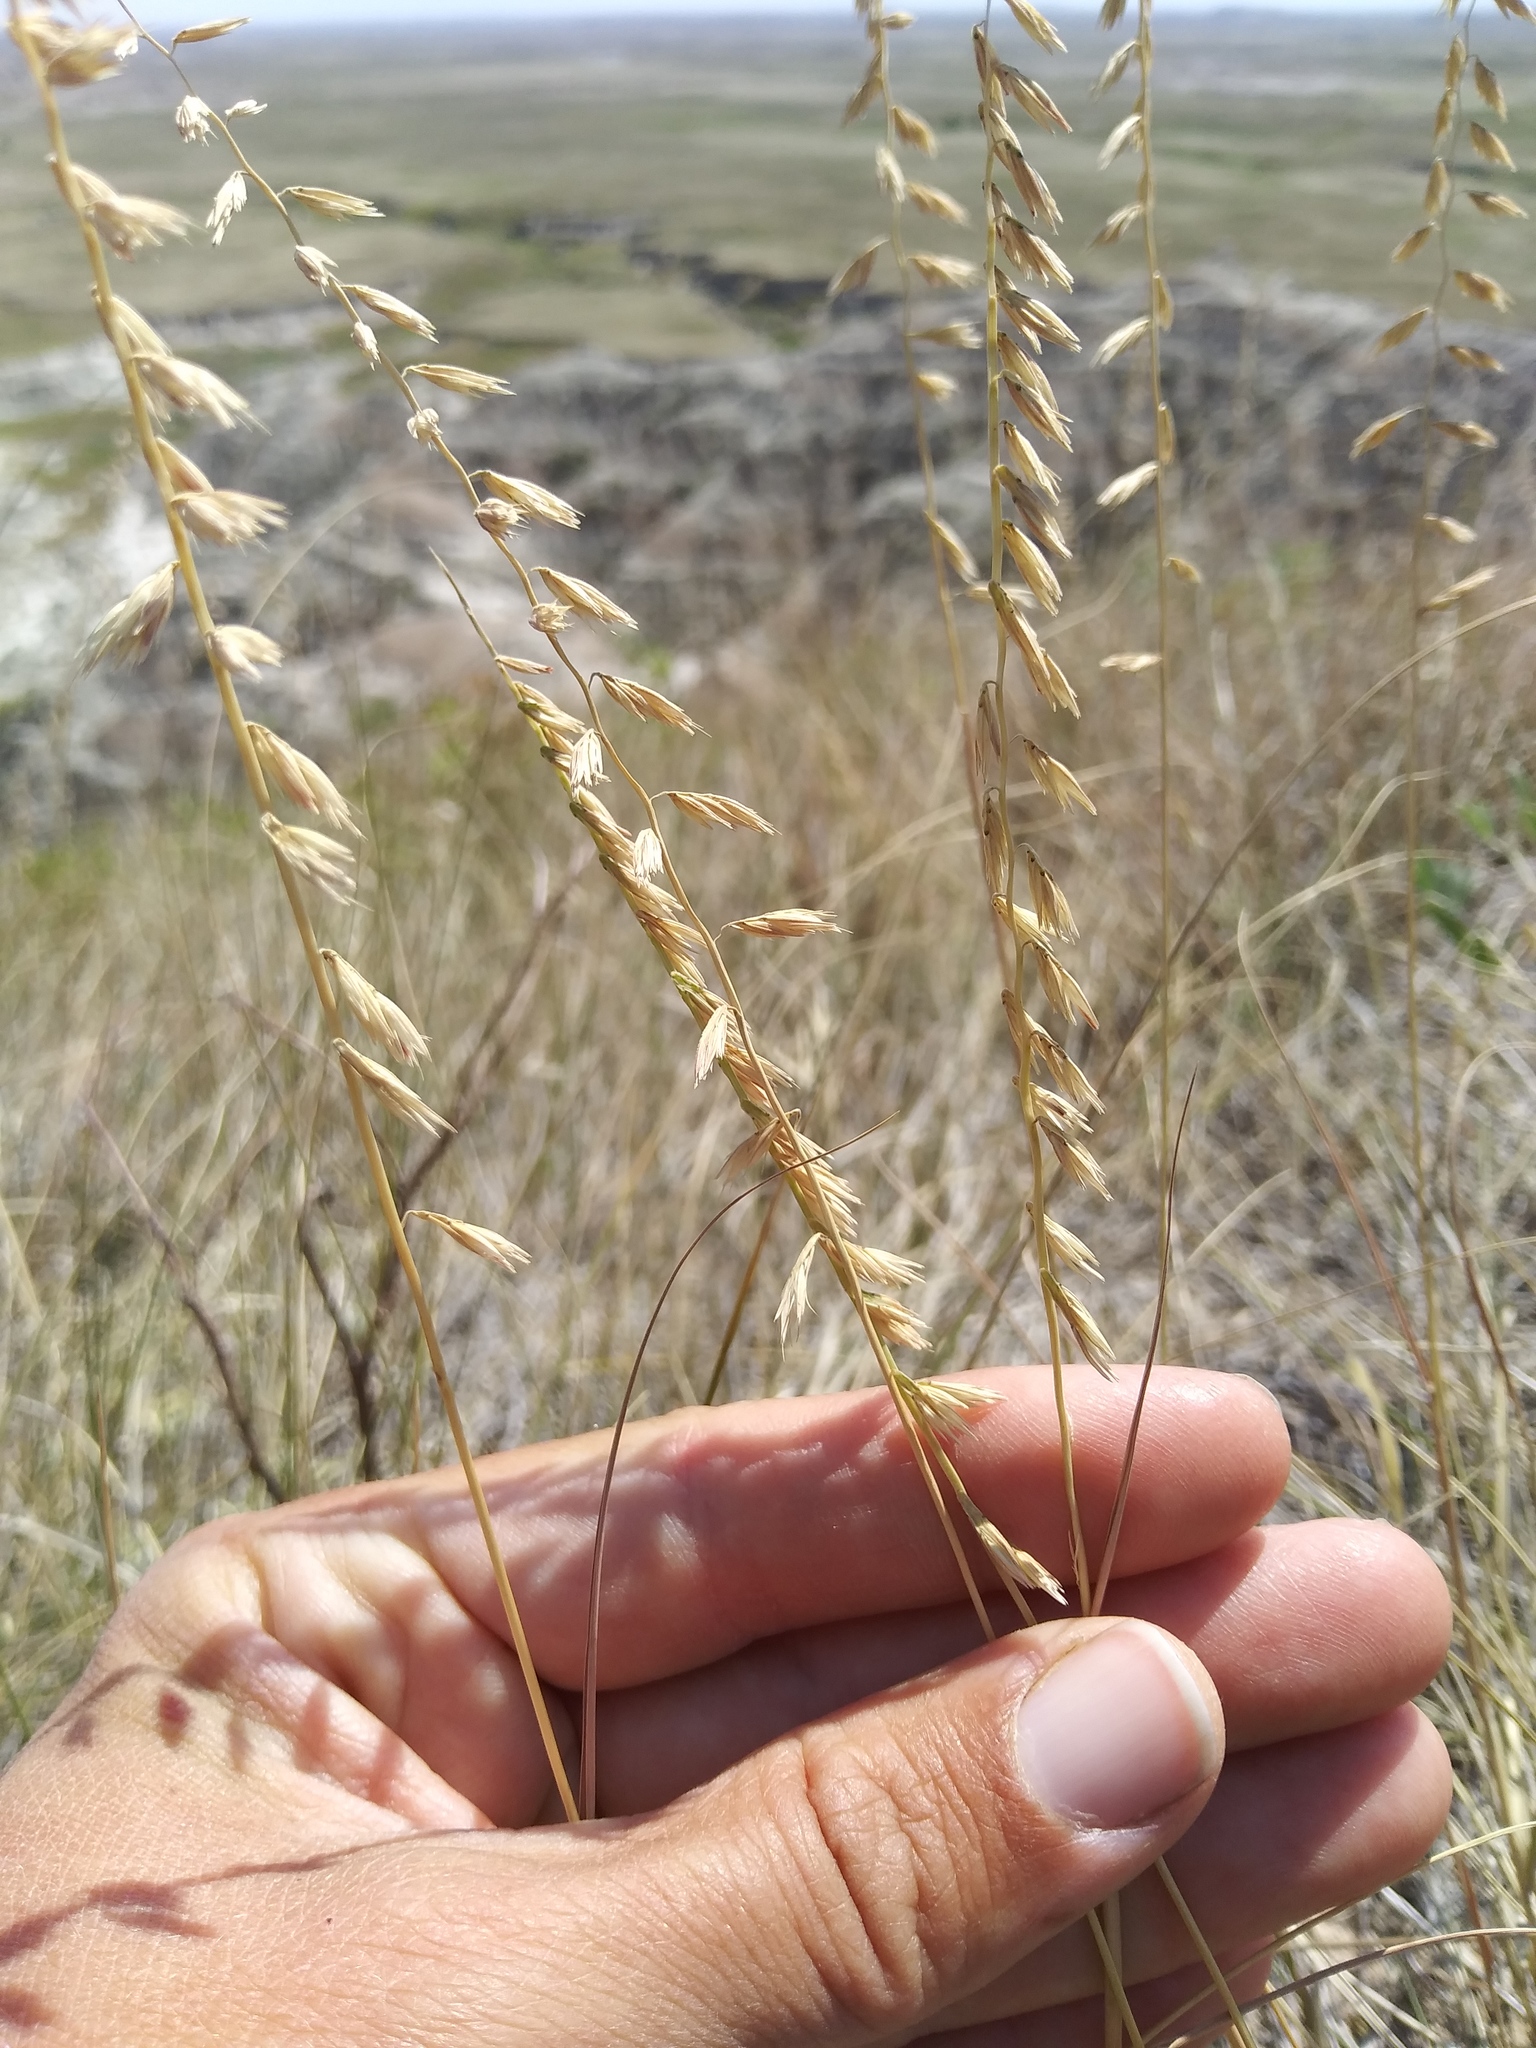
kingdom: Plantae
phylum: Tracheophyta
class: Liliopsida
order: Poales
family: Poaceae
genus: Bouteloua
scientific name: Bouteloua curtipendula
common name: Side-oats grama
